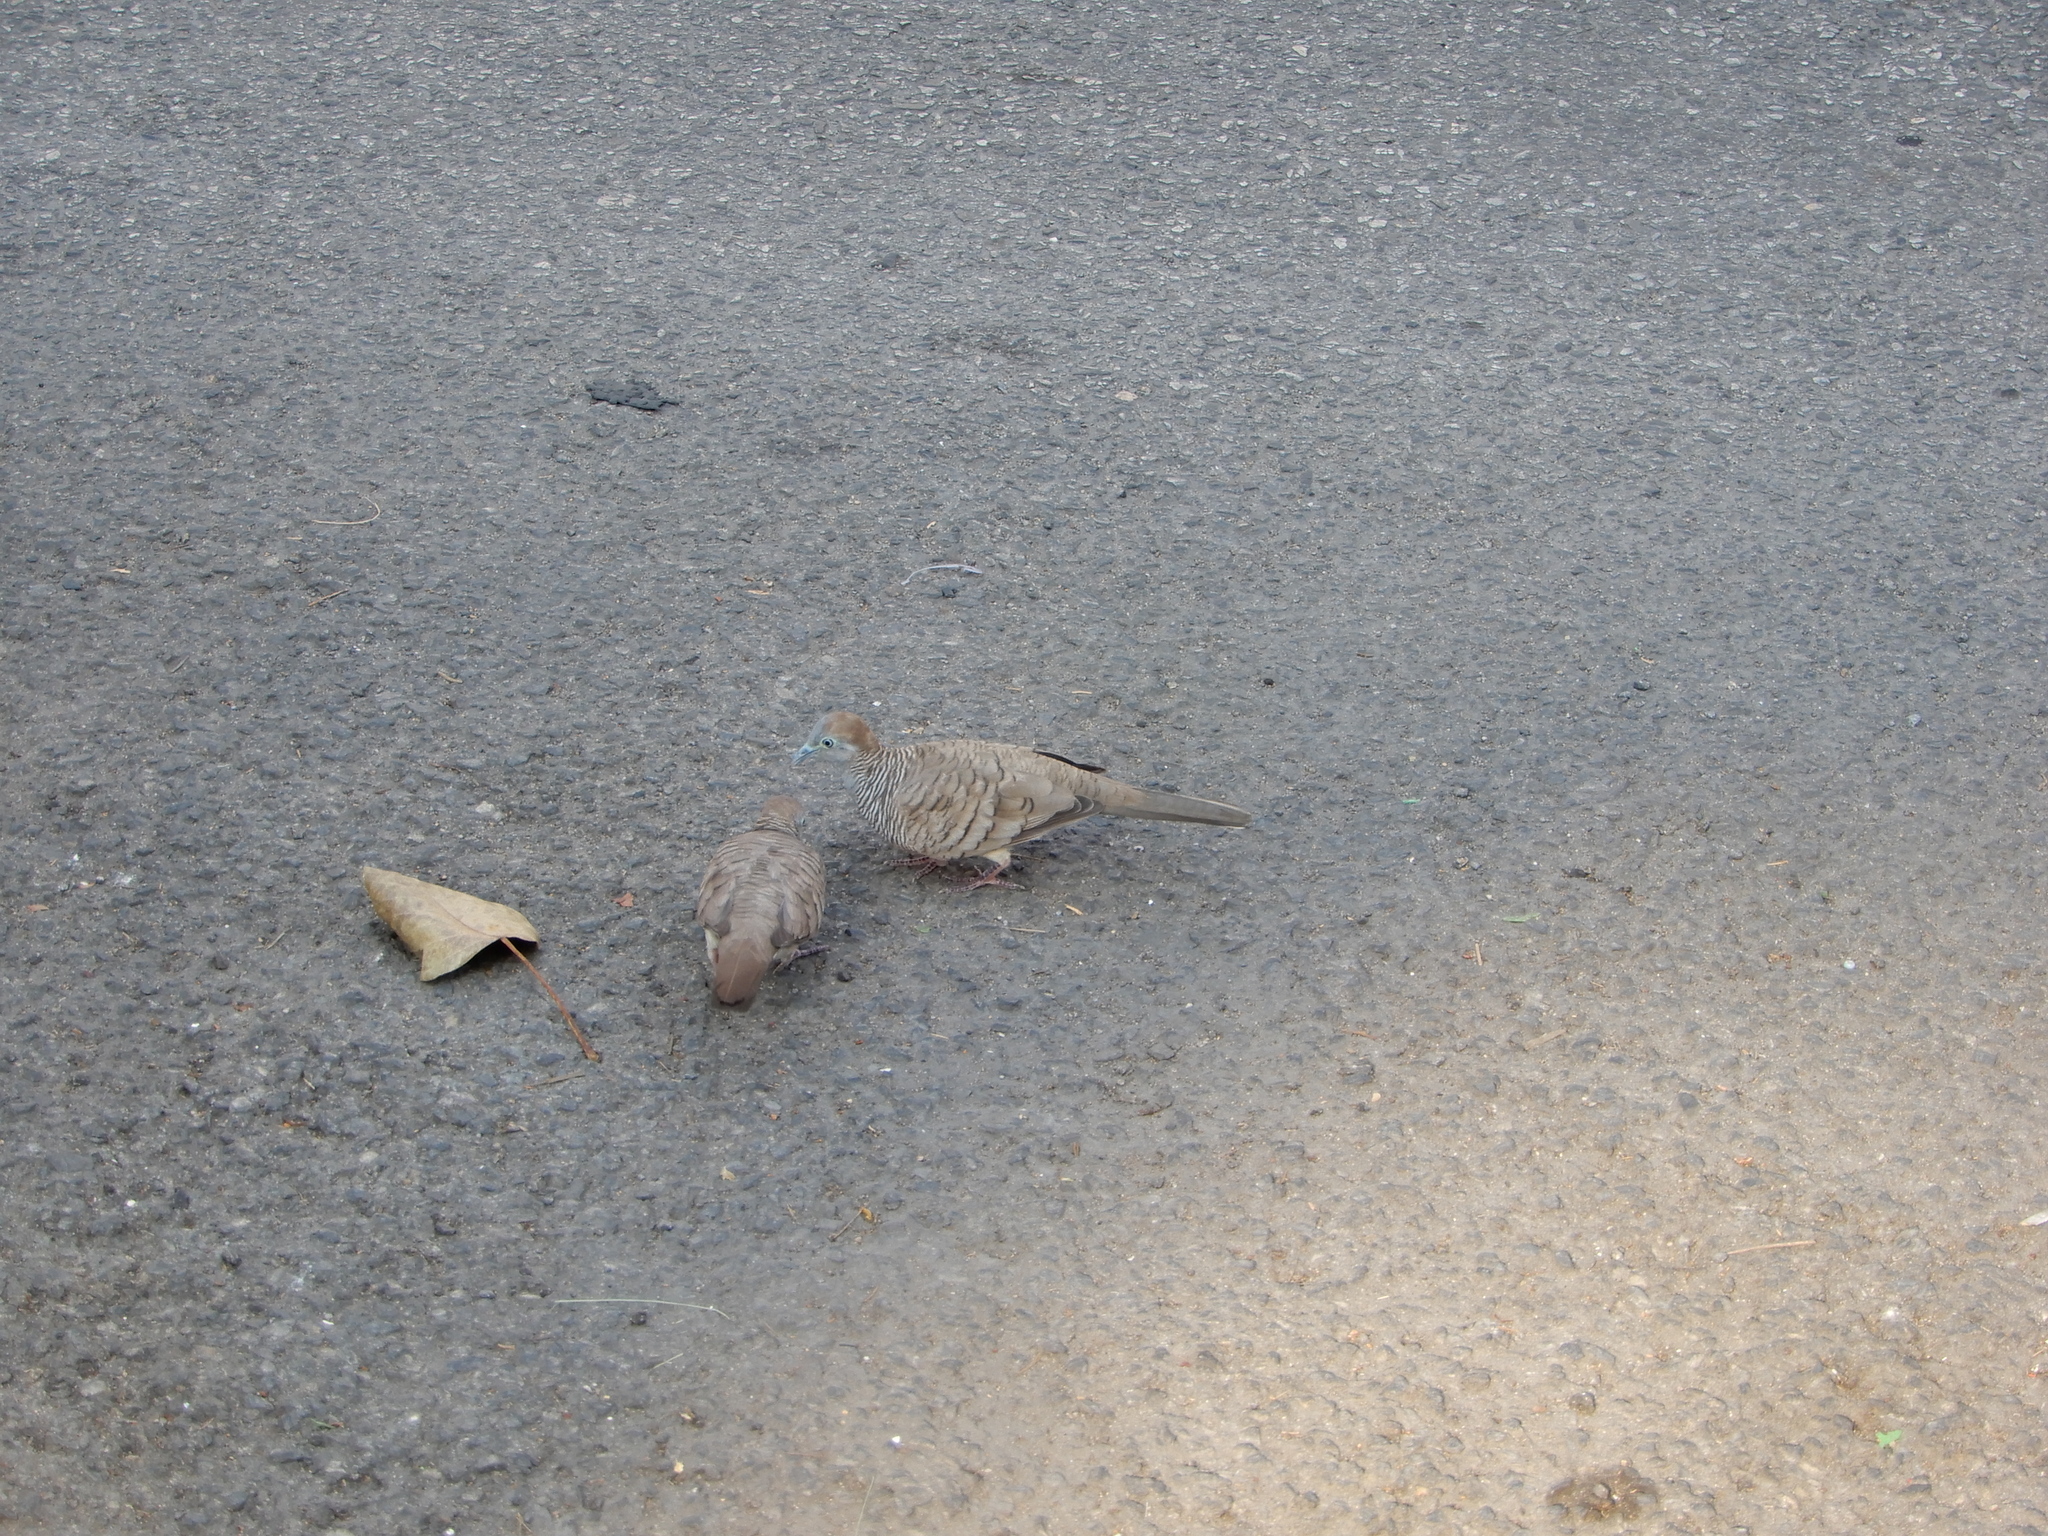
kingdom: Animalia
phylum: Chordata
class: Aves
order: Columbiformes
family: Columbidae
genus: Geopelia
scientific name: Geopelia striata
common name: Zebra dove
